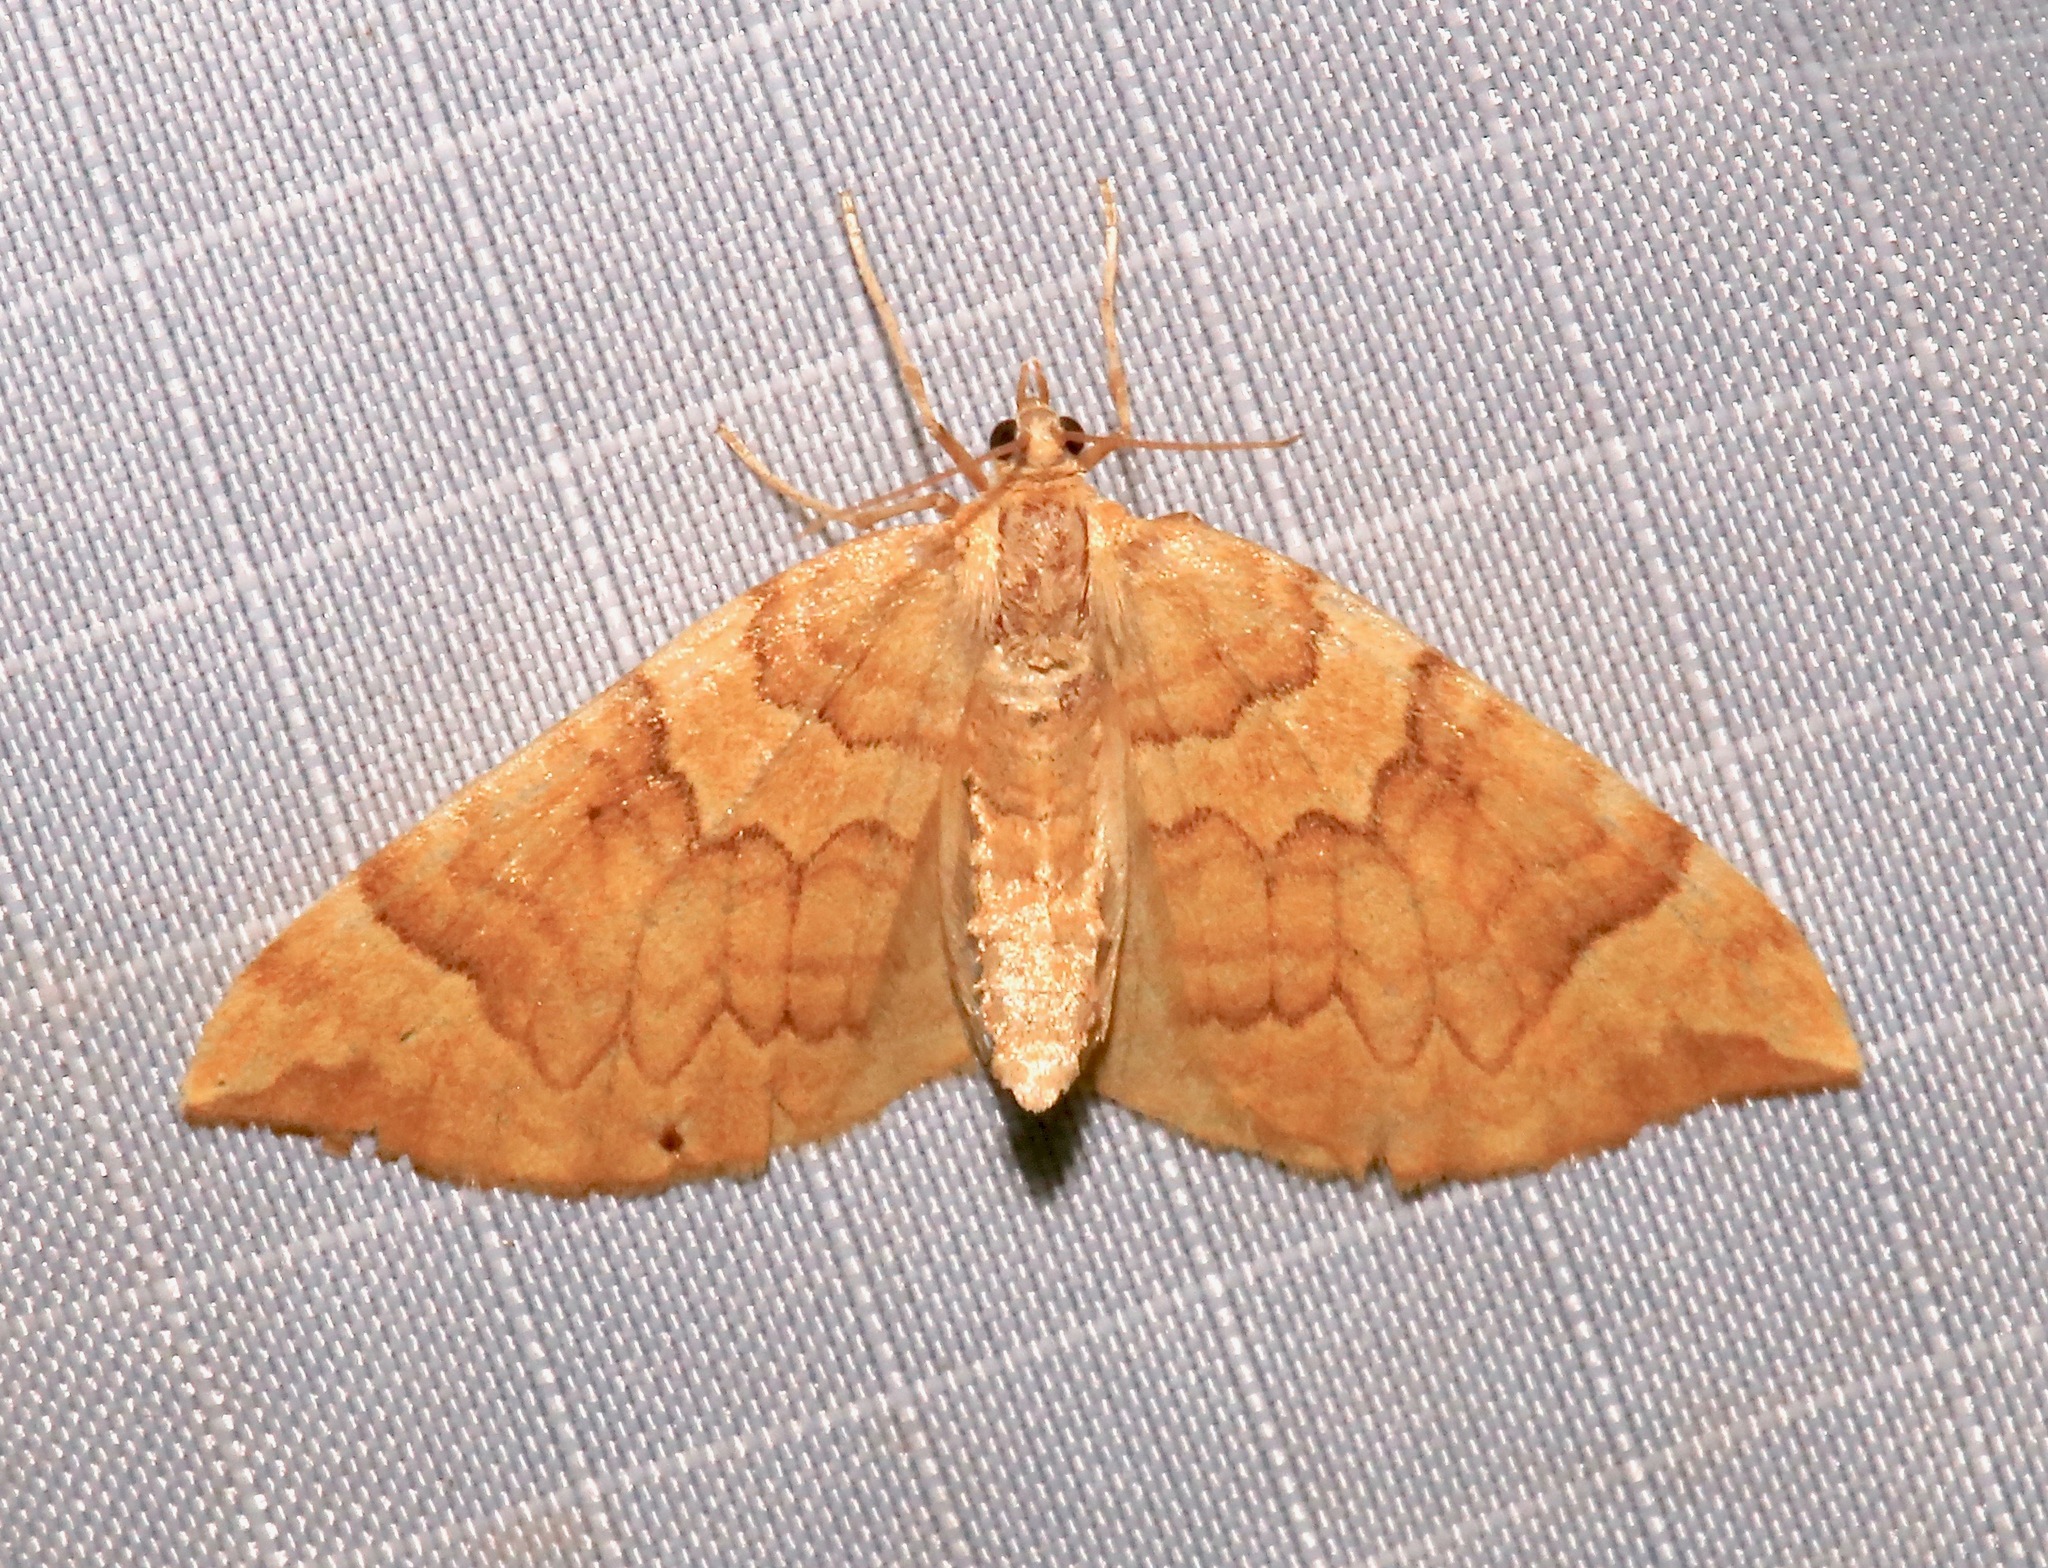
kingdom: Animalia
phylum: Arthropoda
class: Insecta
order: Lepidoptera
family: Geometridae
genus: Eulithis
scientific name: Eulithis propulsata
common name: Currant eulithis moth
